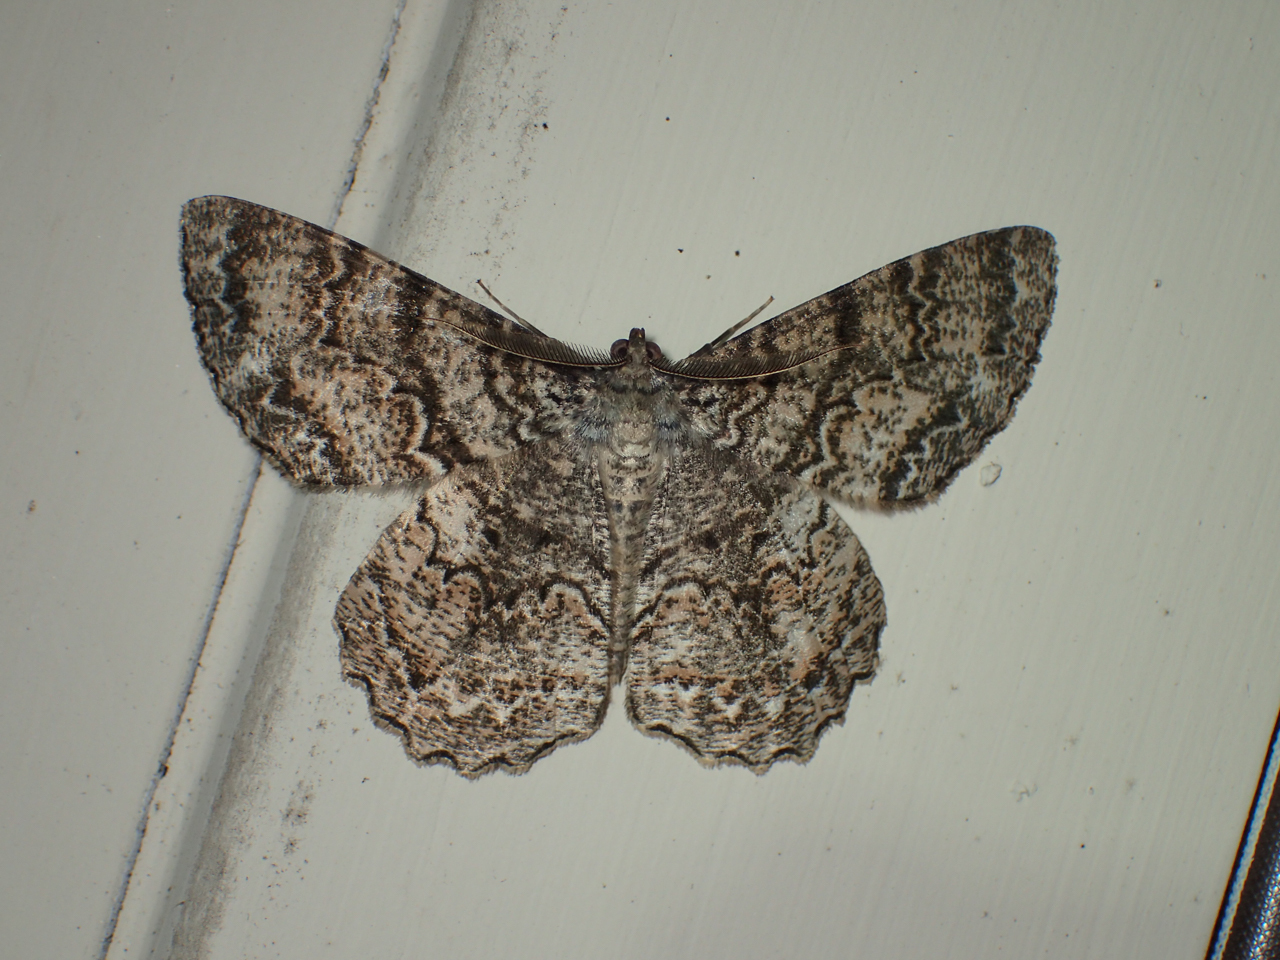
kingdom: Animalia
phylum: Arthropoda
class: Insecta
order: Lepidoptera
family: Geometridae
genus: Epimecis
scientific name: Epimecis hortaria
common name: Tulip-tree beauty
